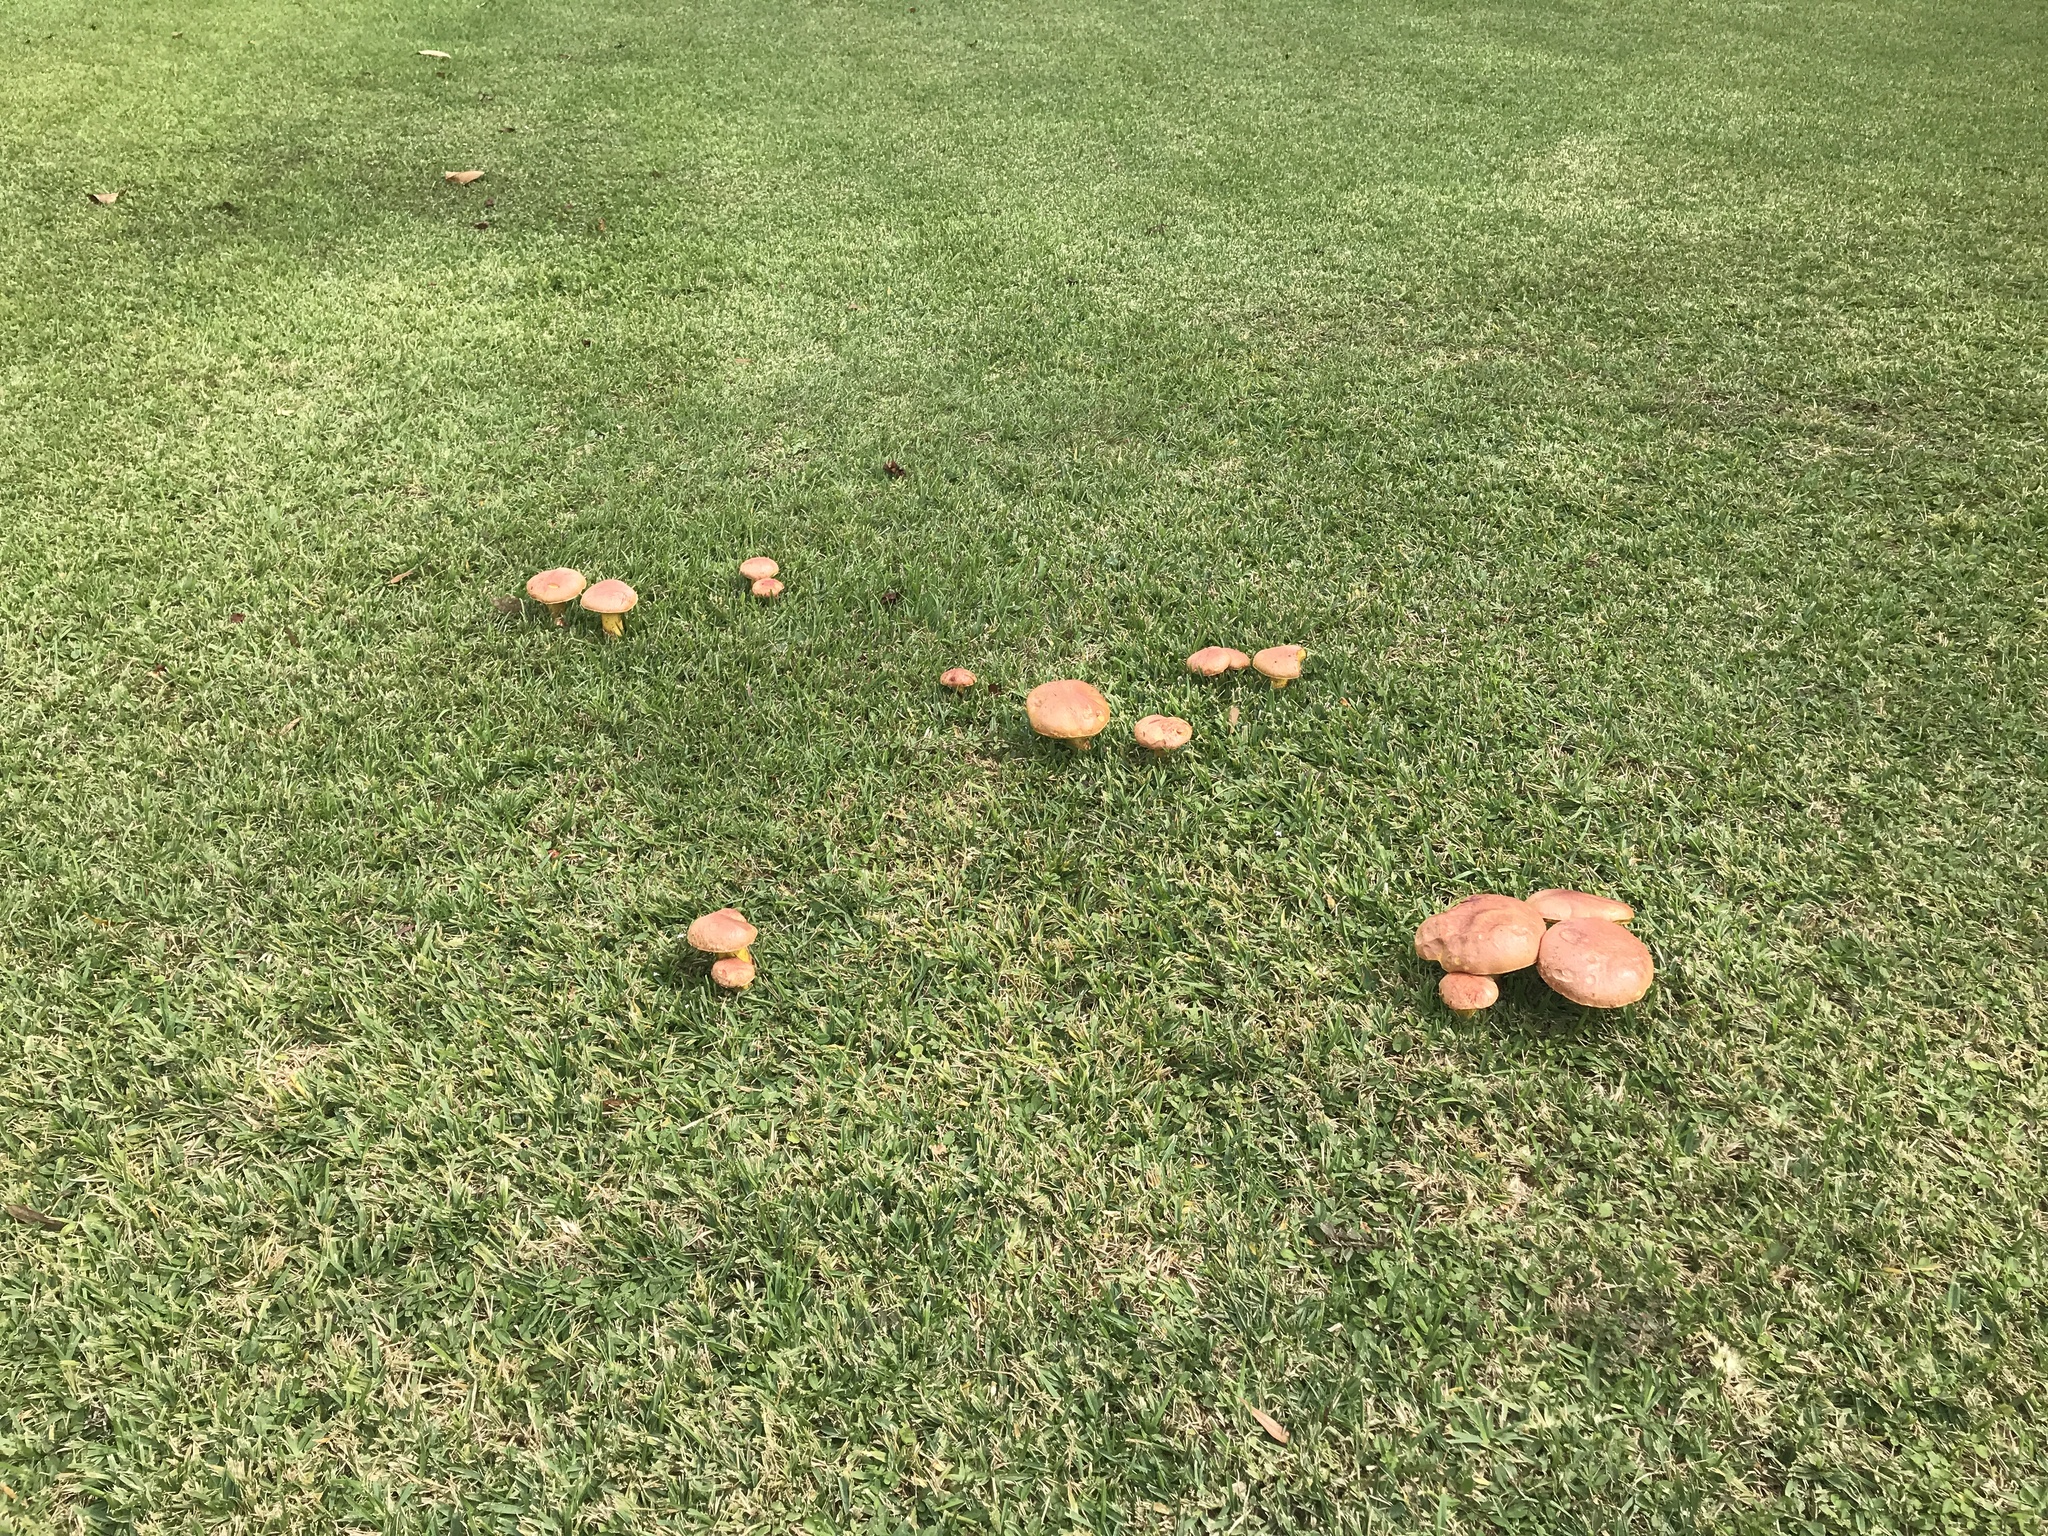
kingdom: Fungi
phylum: Basidiomycota
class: Agaricomycetes
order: Boletales
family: Boletaceae
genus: Pulchroboletus
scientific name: Pulchroboletus rubricitrinus
